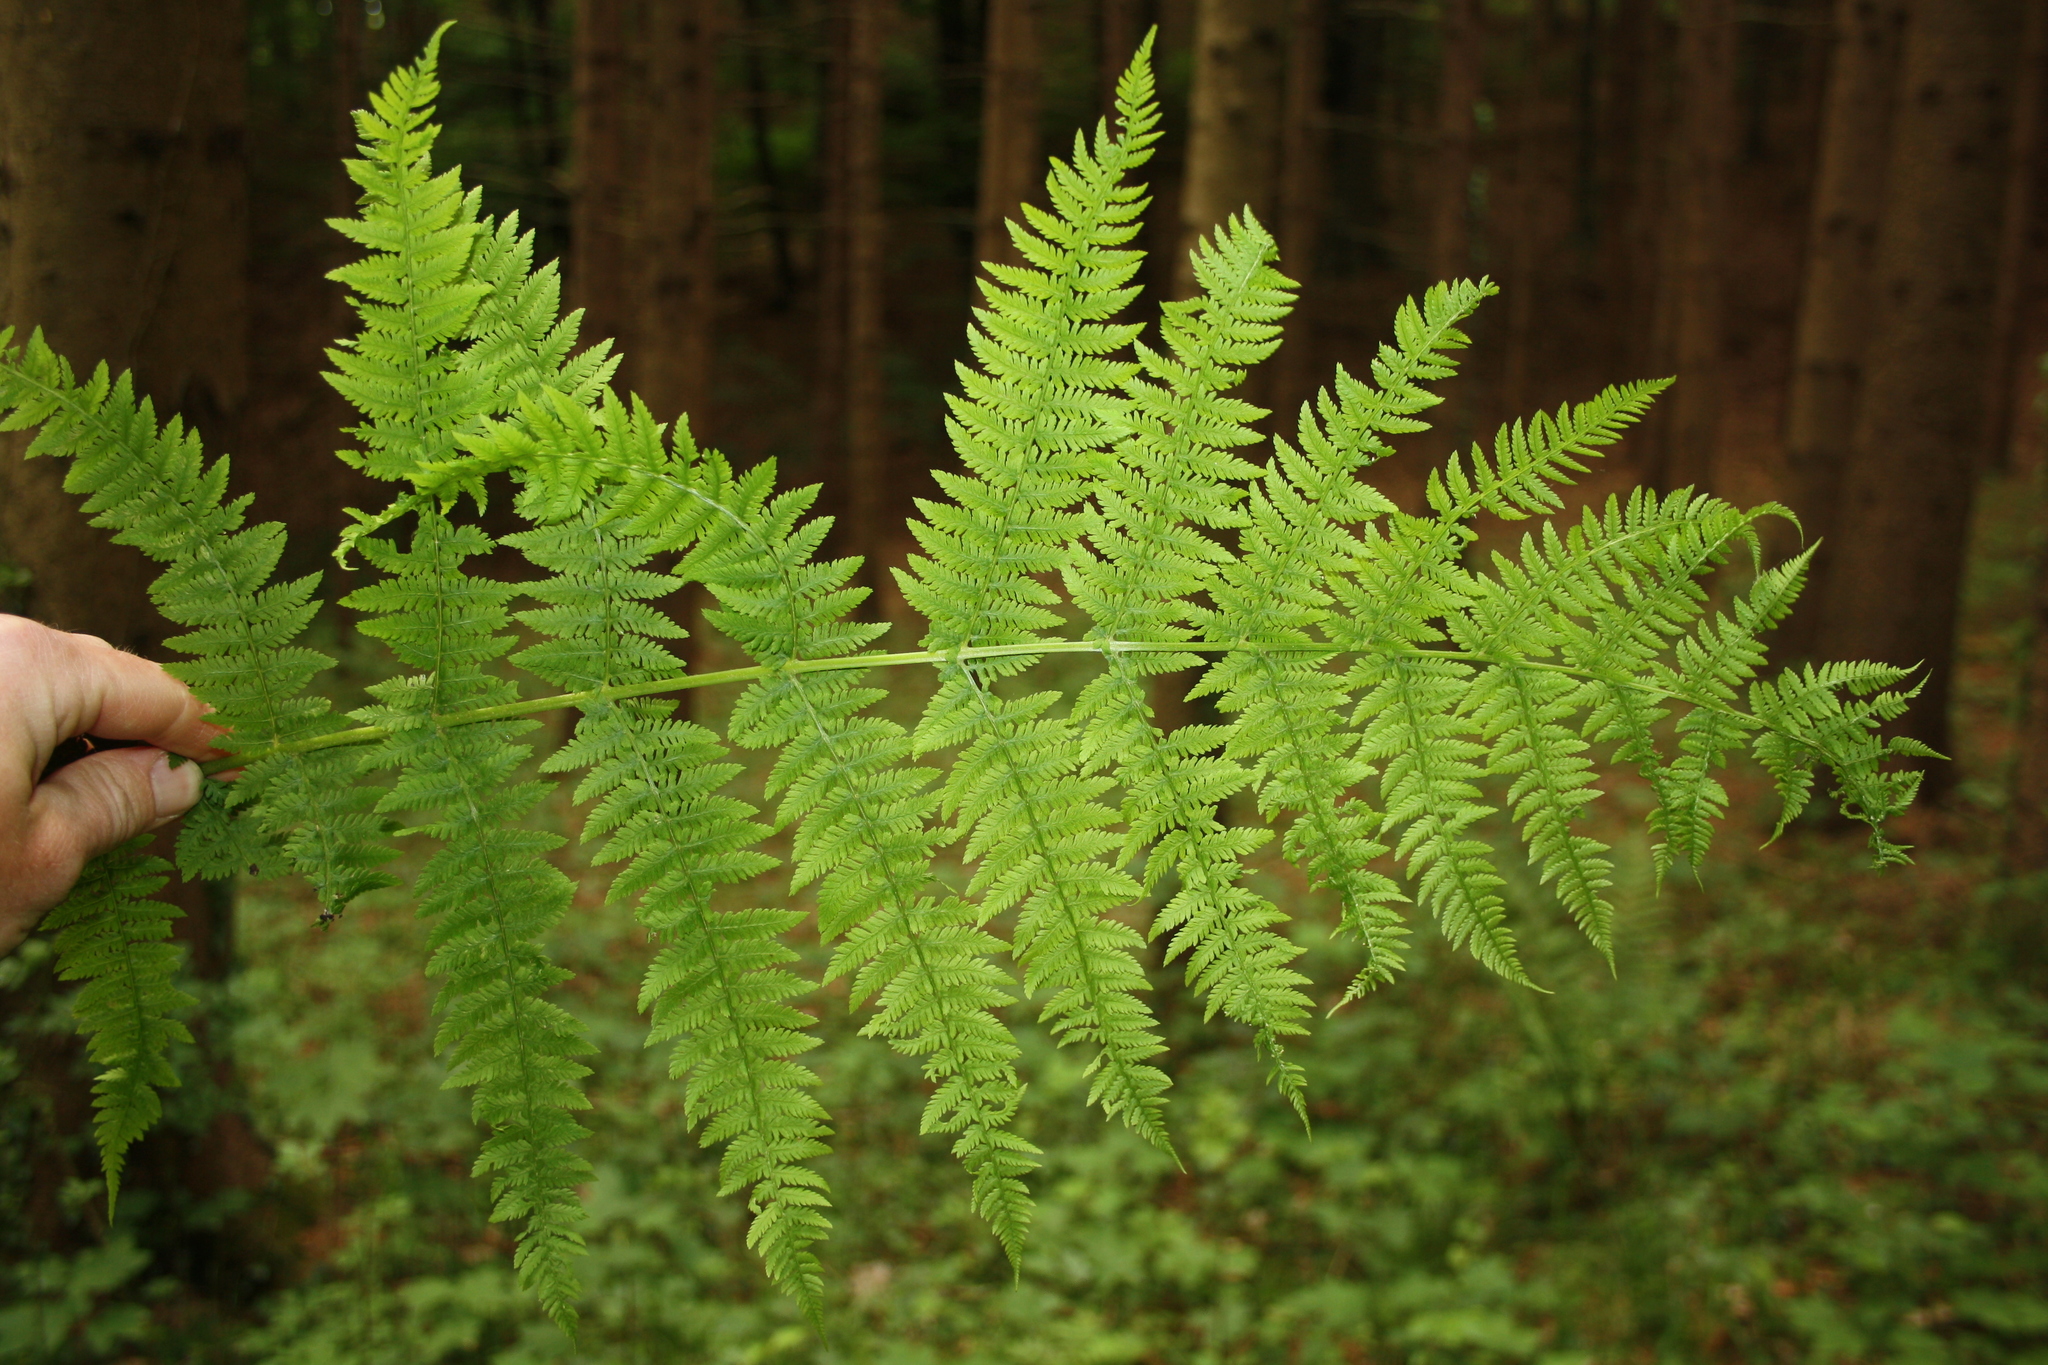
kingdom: Plantae
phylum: Tracheophyta
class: Polypodiopsida
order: Polypodiales
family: Athyriaceae
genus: Athyrium
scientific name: Athyrium filix-femina
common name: Lady fern
